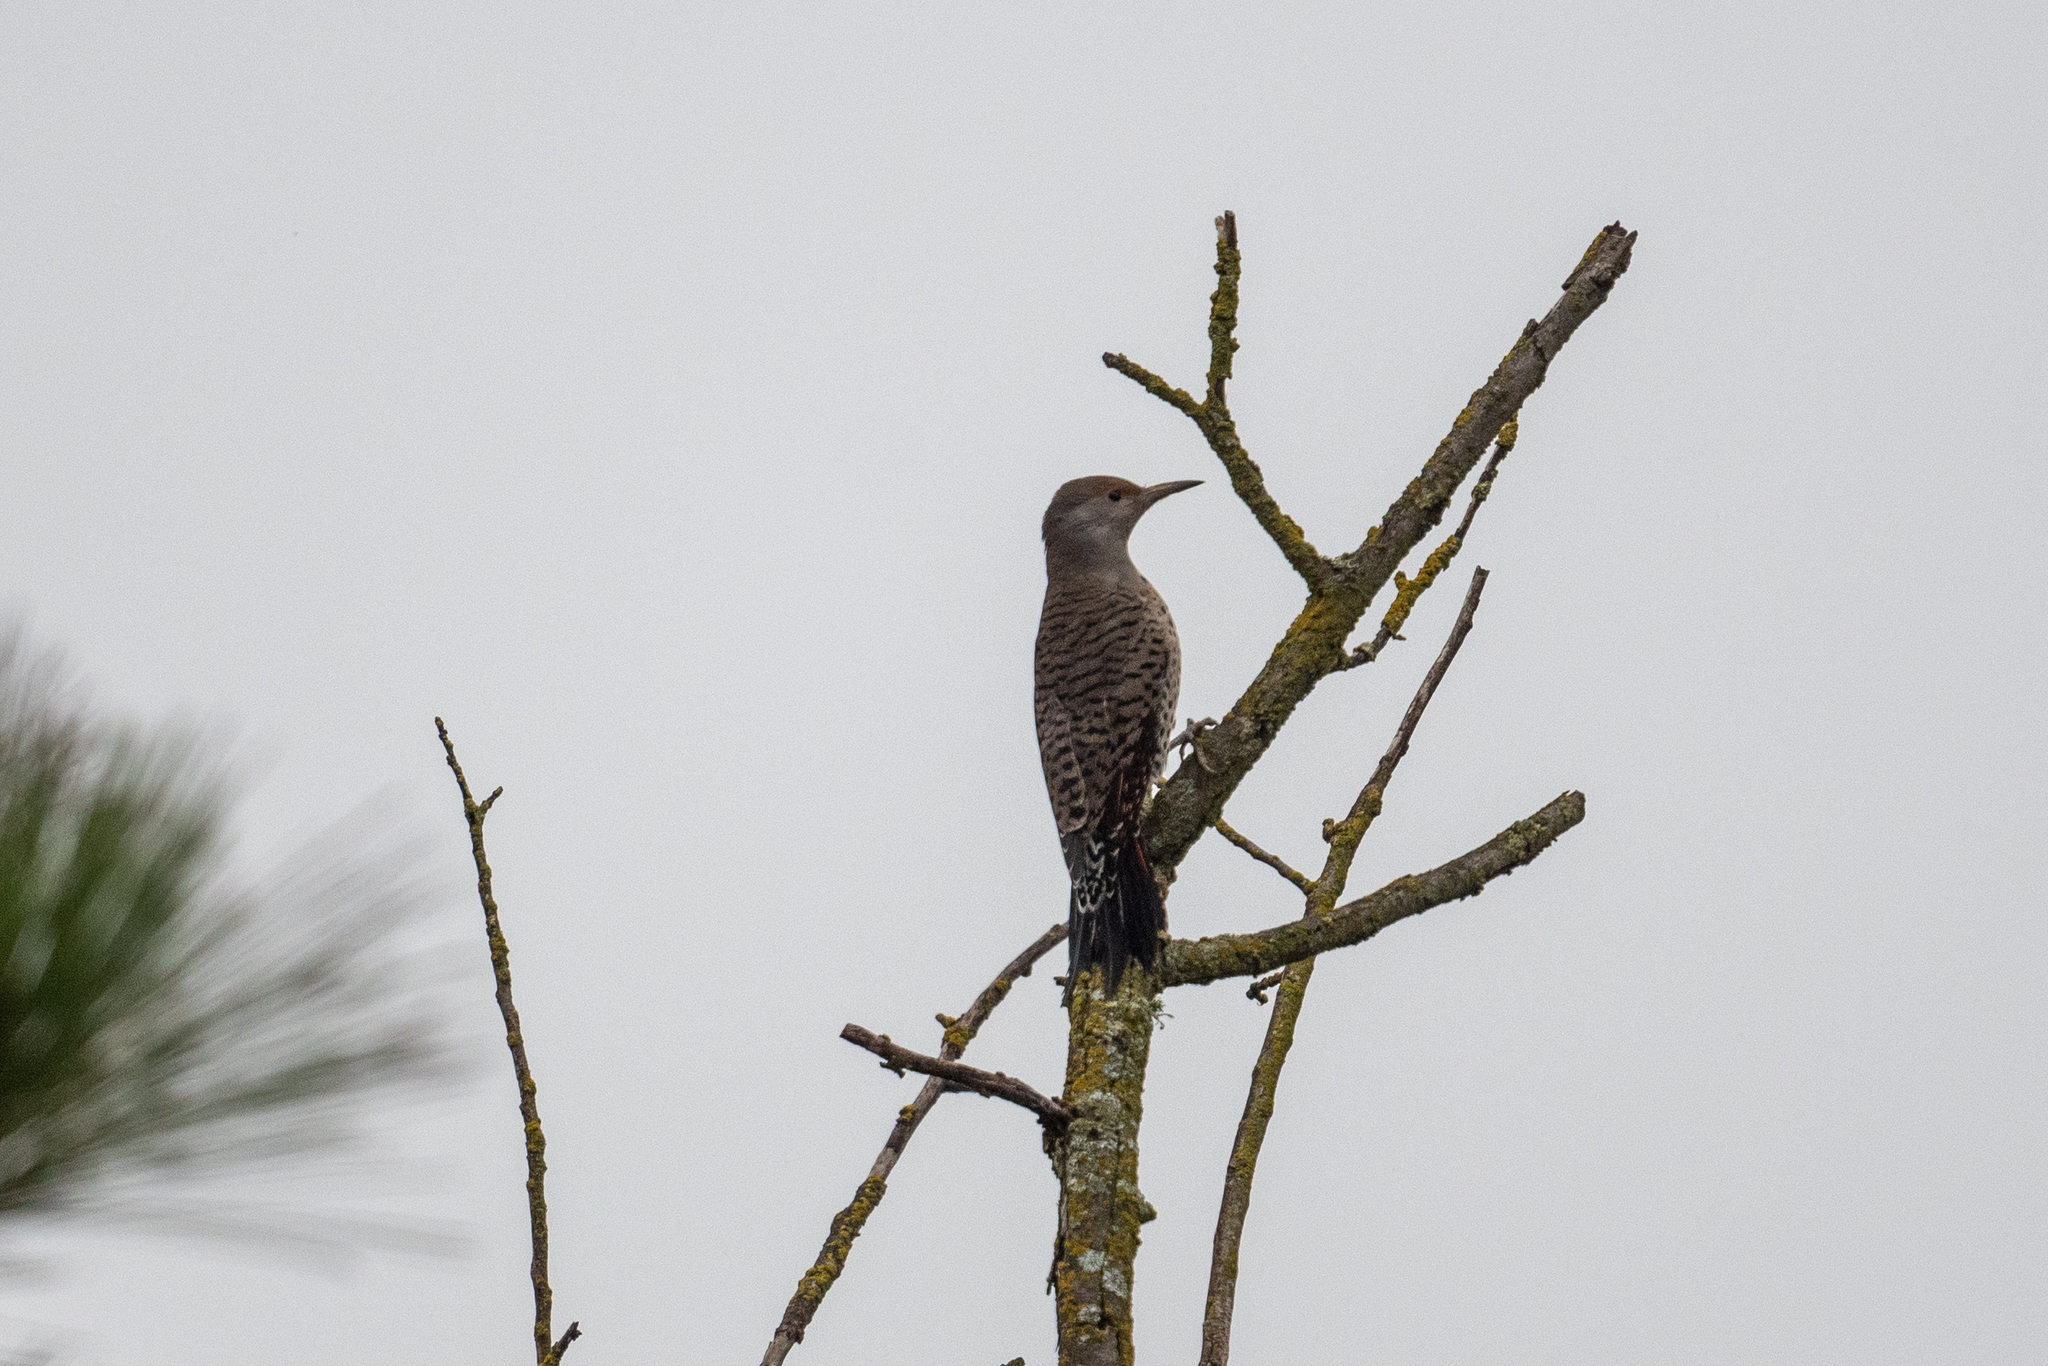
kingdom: Animalia
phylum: Chordata
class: Aves
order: Piciformes
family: Picidae
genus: Colaptes
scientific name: Colaptes auratus
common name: Northern flicker
